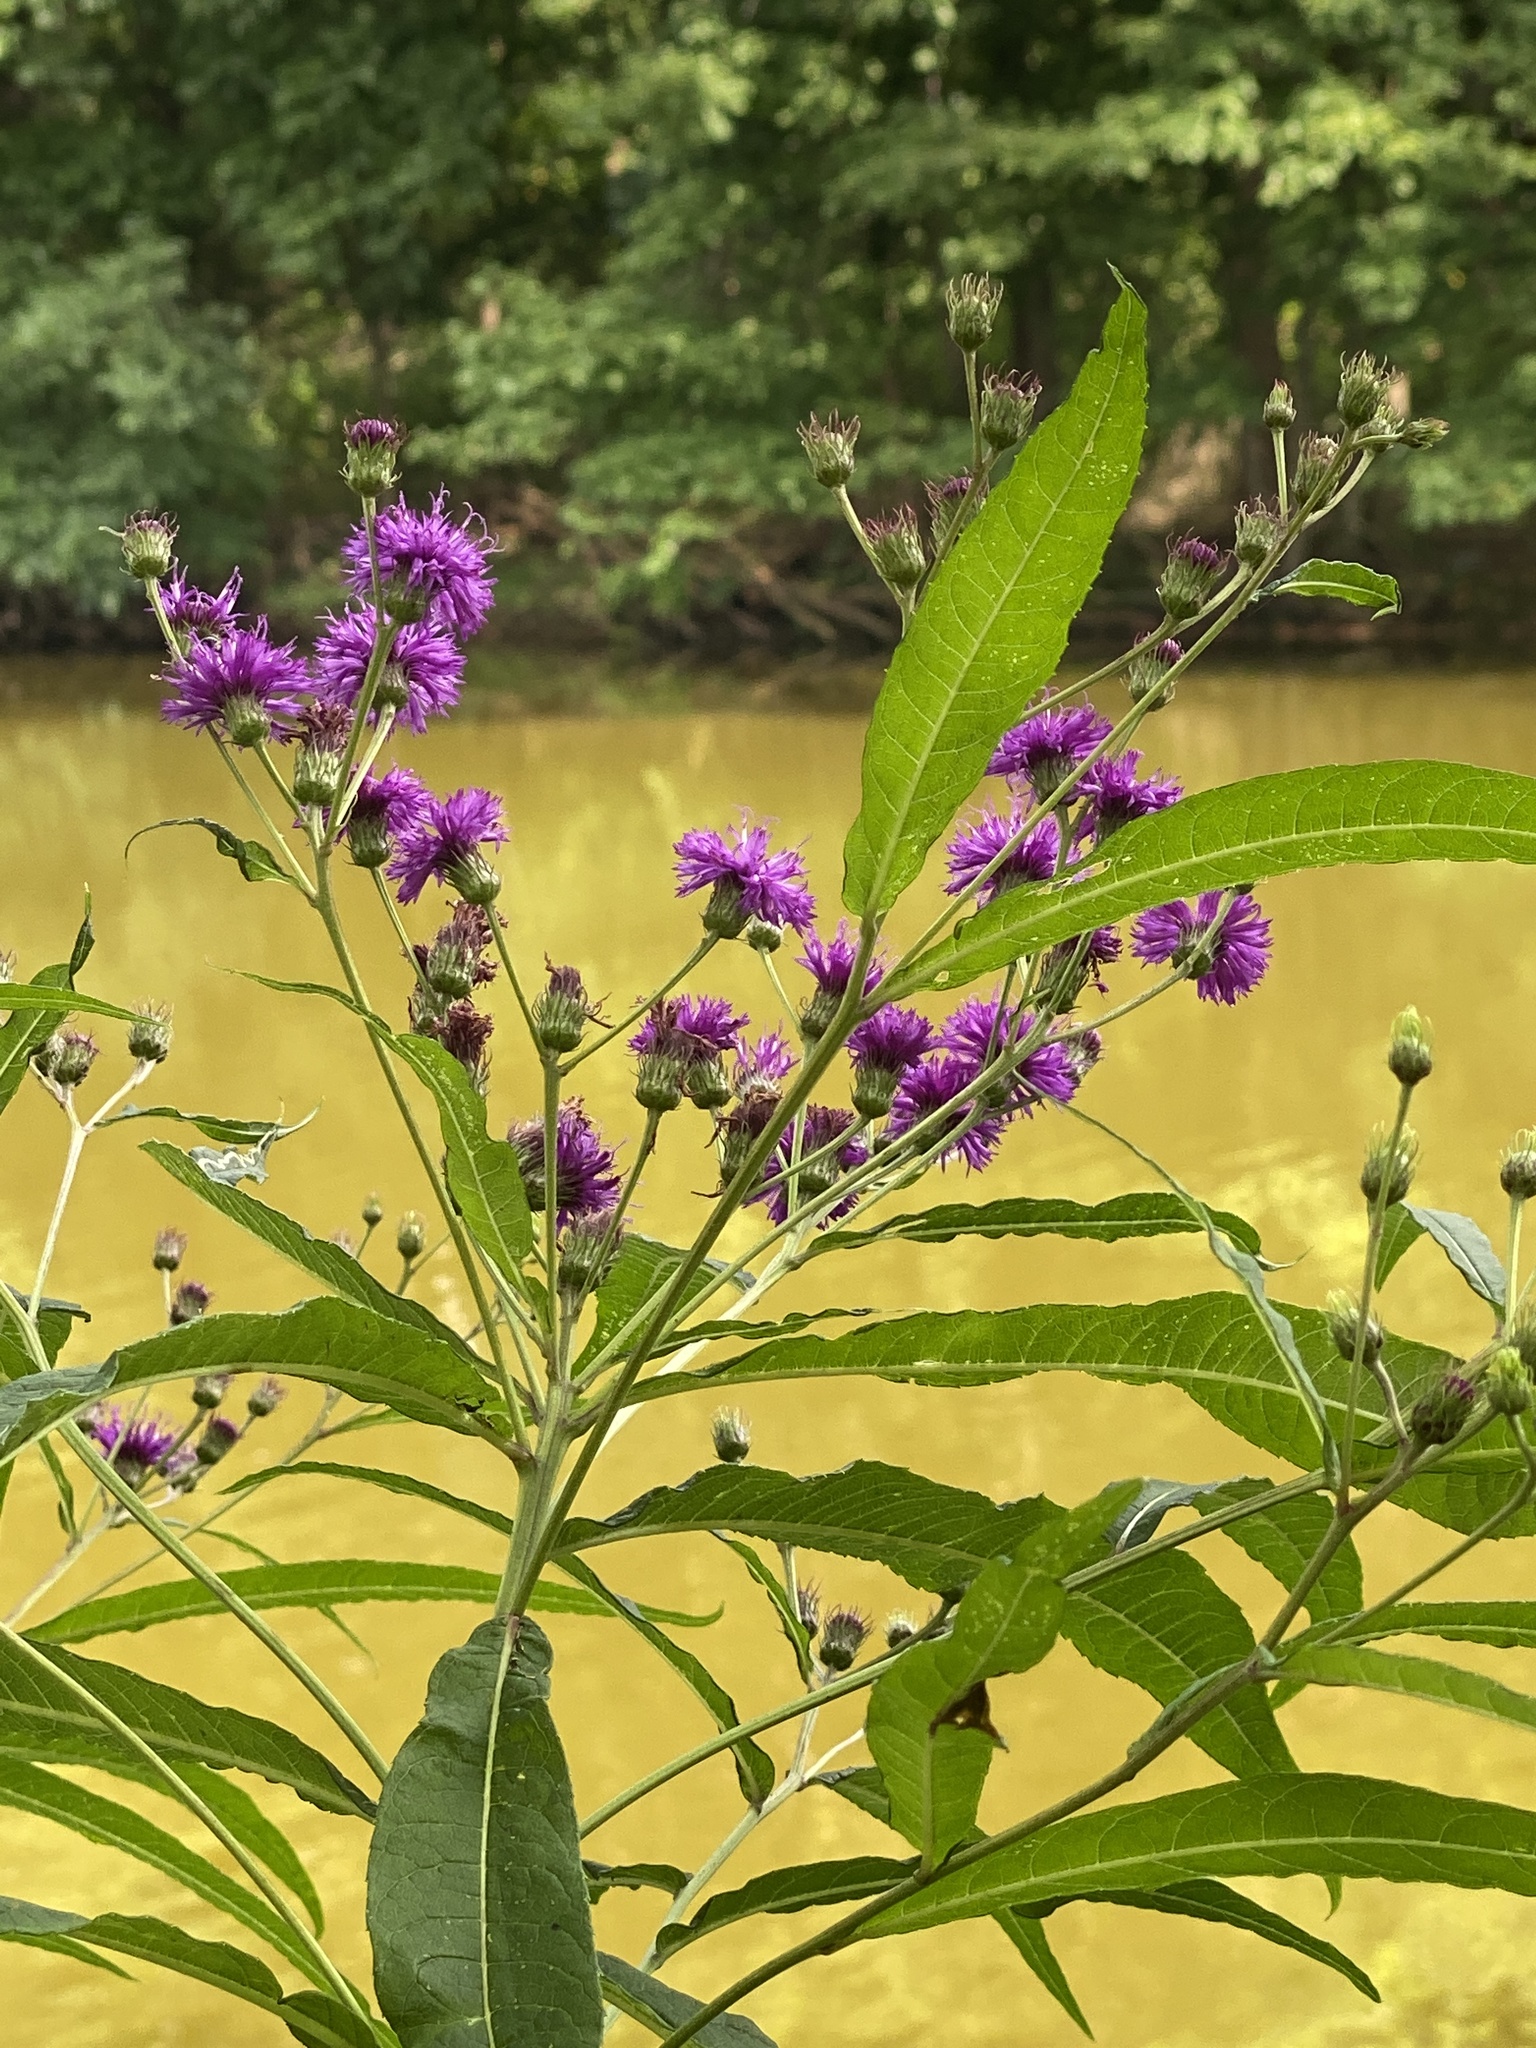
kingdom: Plantae
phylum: Tracheophyta
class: Magnoliopsida
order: Asterales
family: Asteraceae
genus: Vernonia
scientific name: Vernonia noveboracensis
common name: New york ironweed
